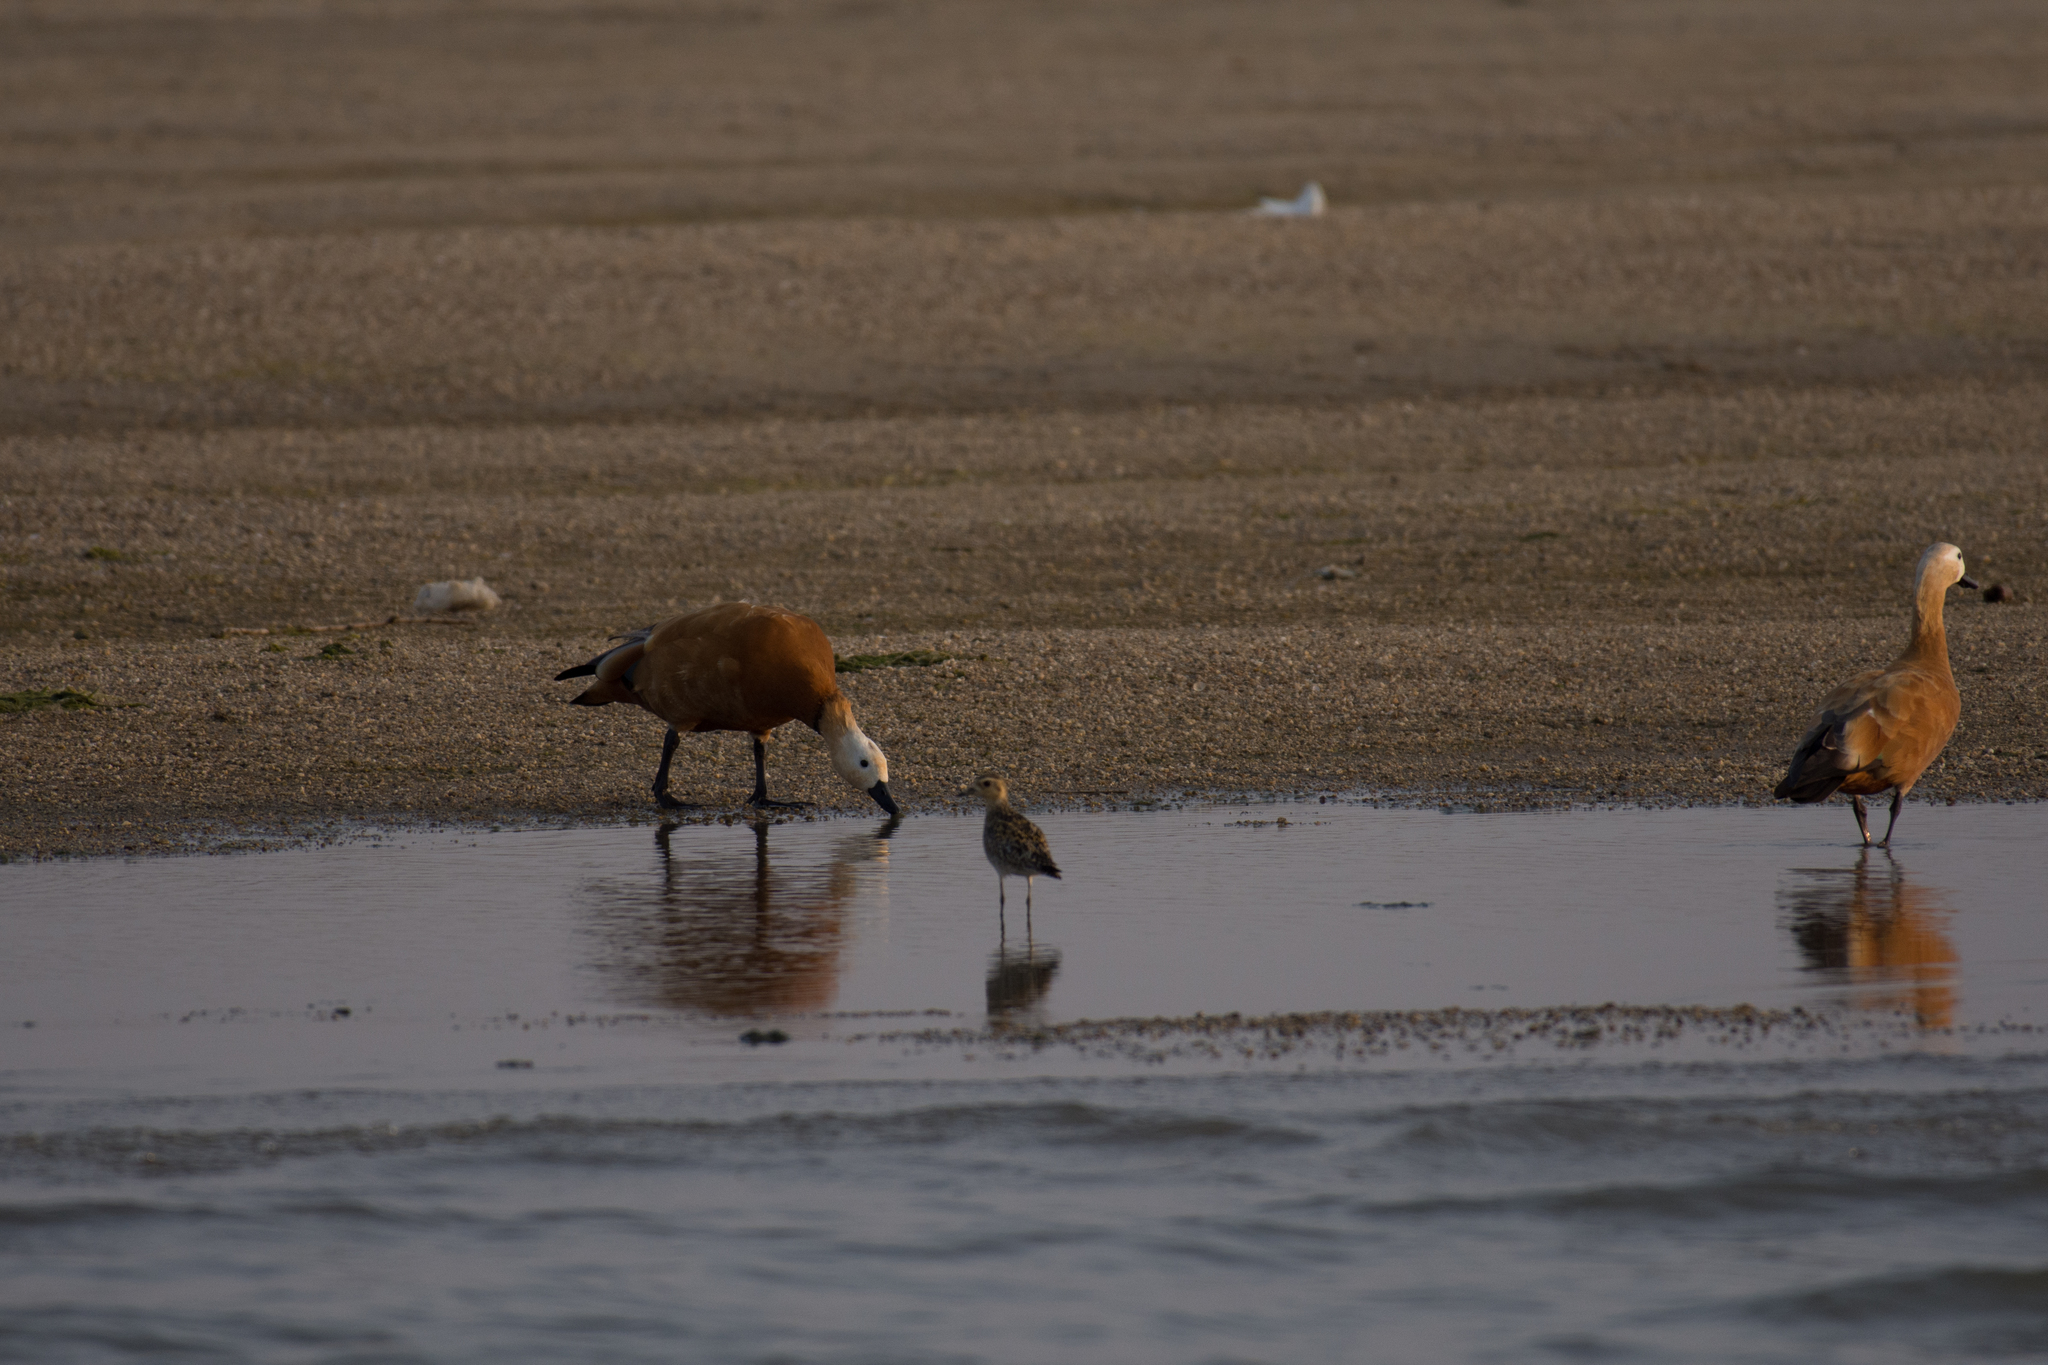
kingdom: Animalia
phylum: Chordata
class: Aves
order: Anseriformes
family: Anatidae
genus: Tadorna
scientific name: Tadorna ferruginea
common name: Ruddy shelduck
